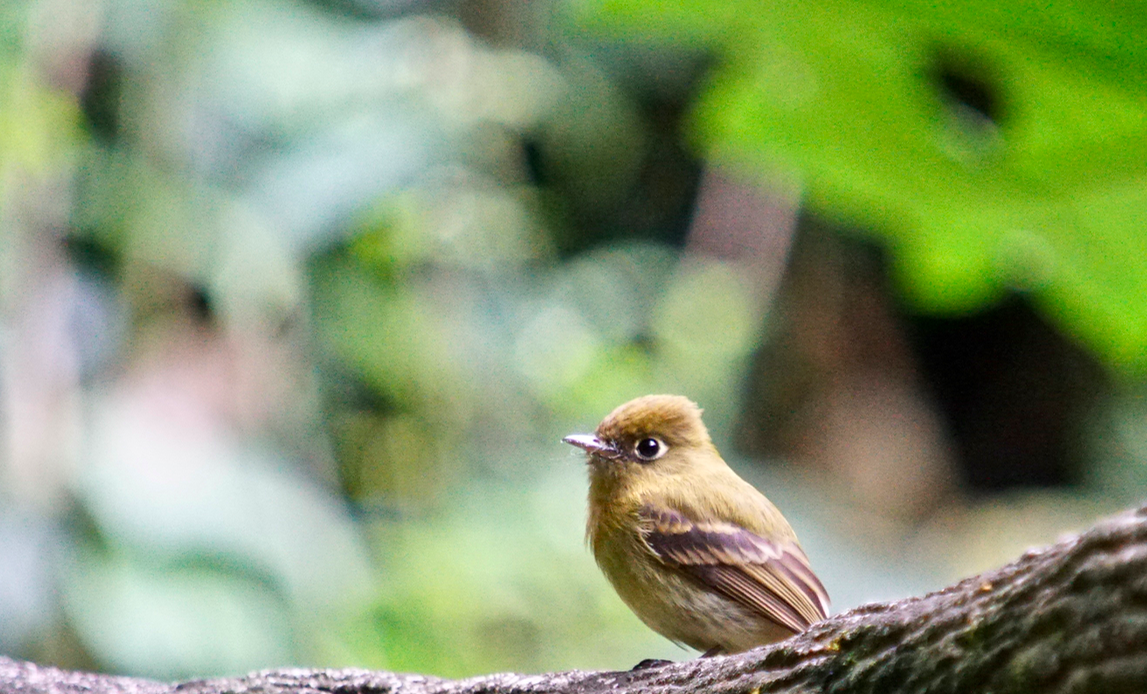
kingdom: Animalia
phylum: Chordata
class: Aves
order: Passeriformes
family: Tyrannidae
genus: Empidonax
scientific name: Empidonax flavescens
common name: Yellowish flycatcher
